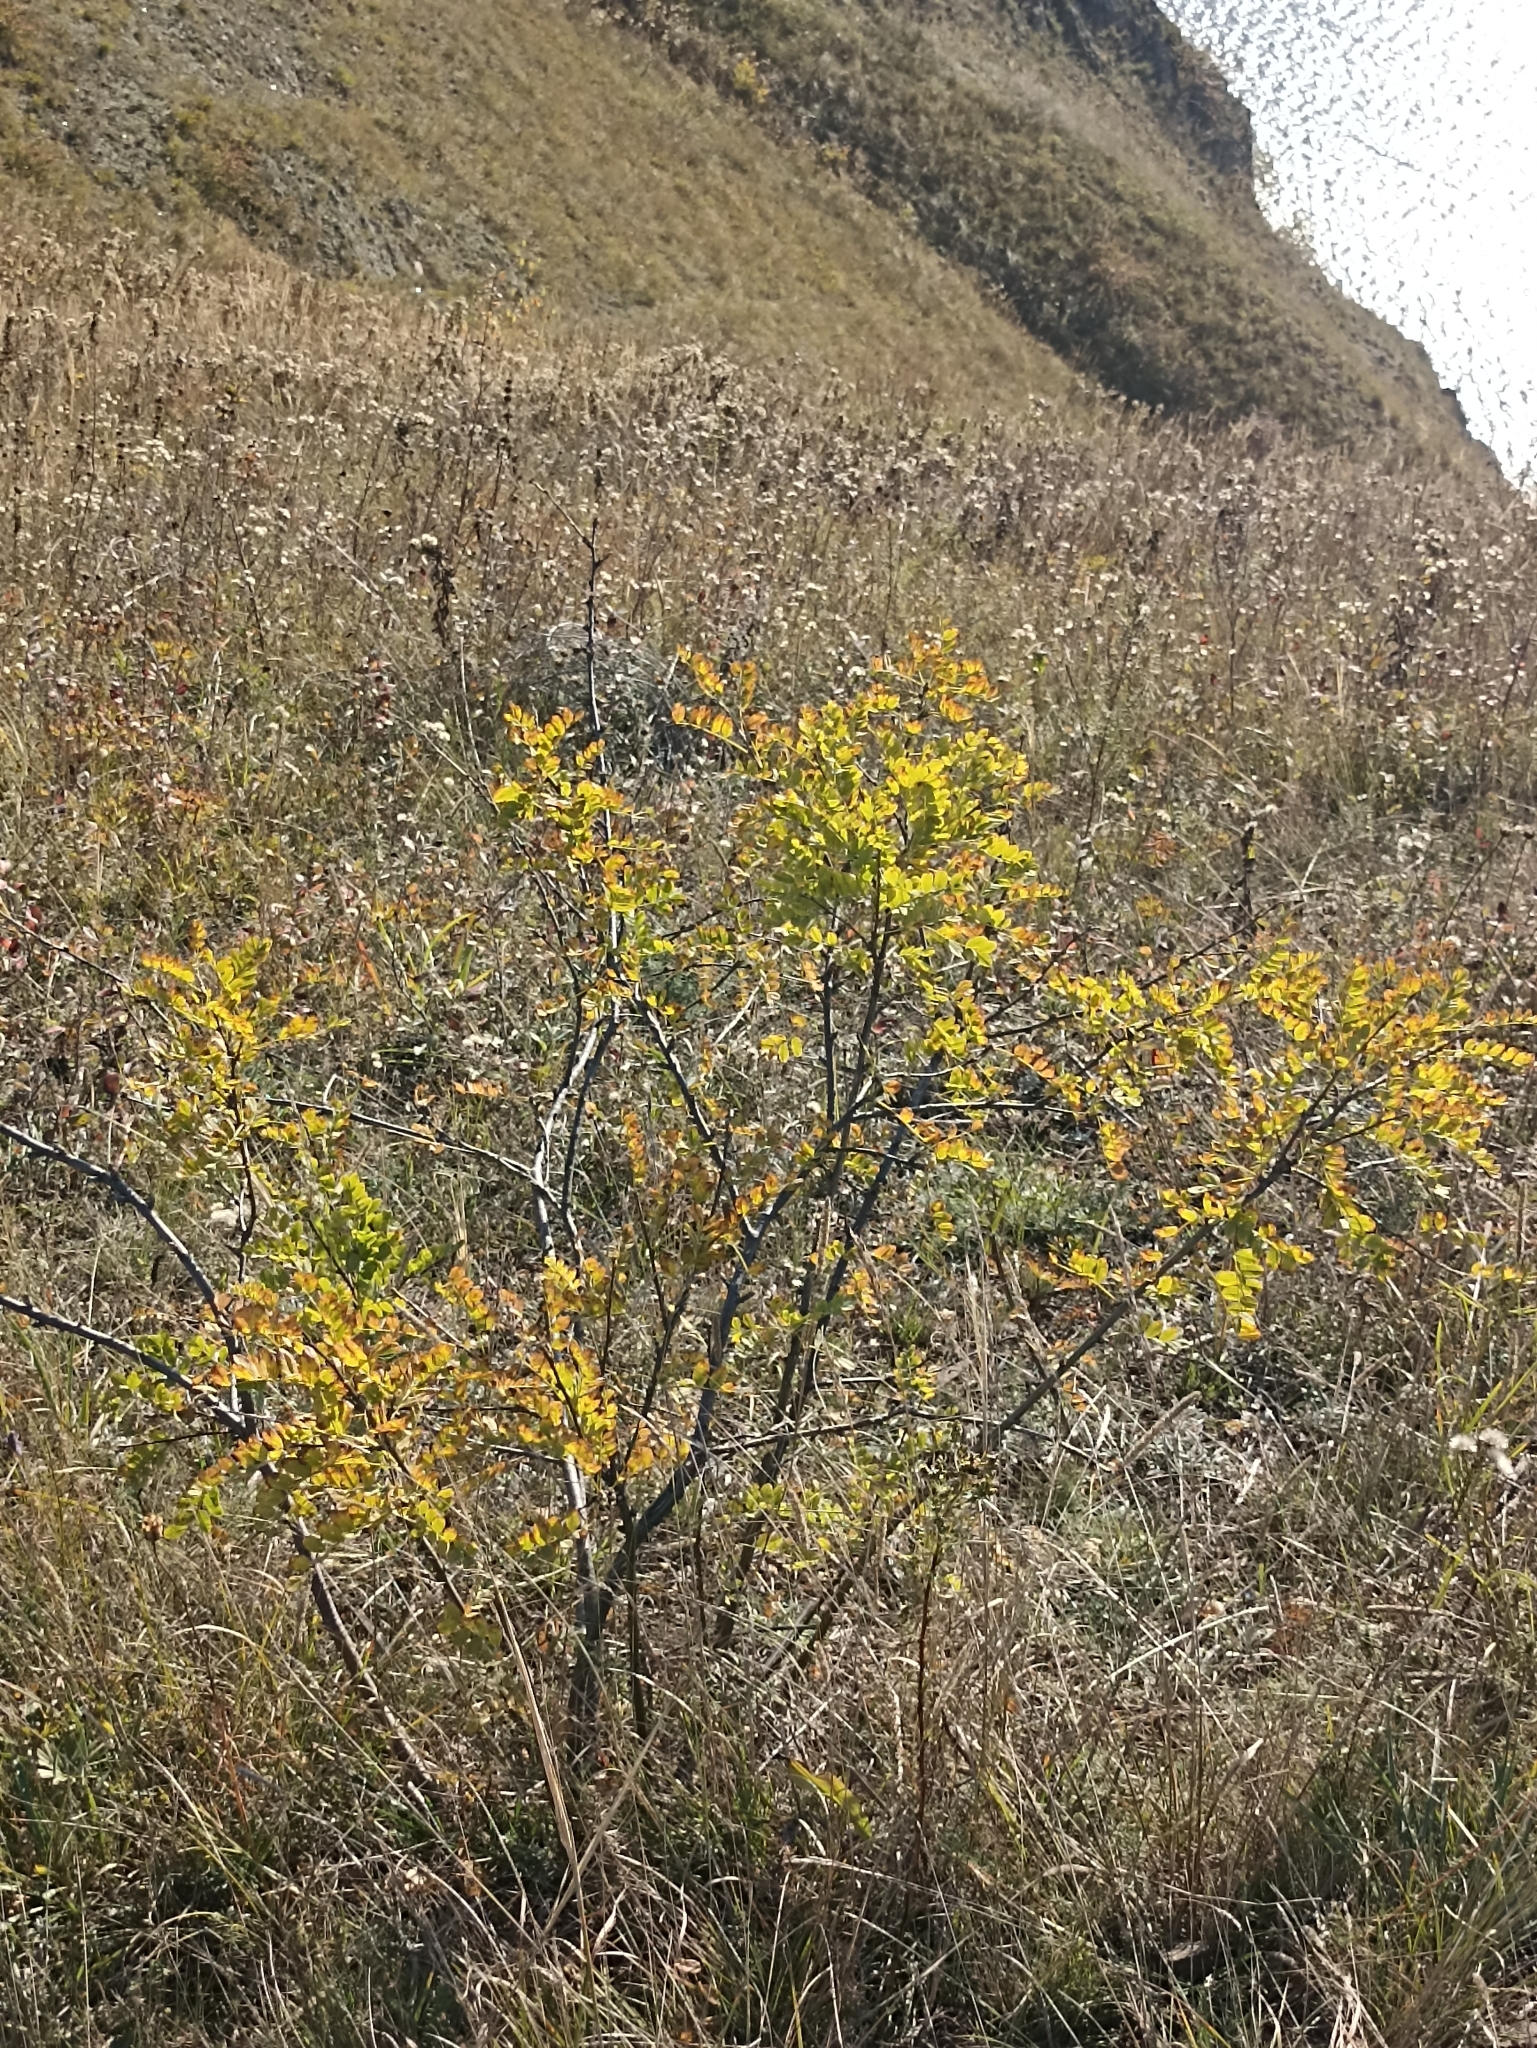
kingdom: Plantae
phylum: Tracheophyta
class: Magnoliopsida
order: Fabales
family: Fabaceae
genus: Caragana
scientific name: Caragana arborescens
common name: Siberian peashrub
